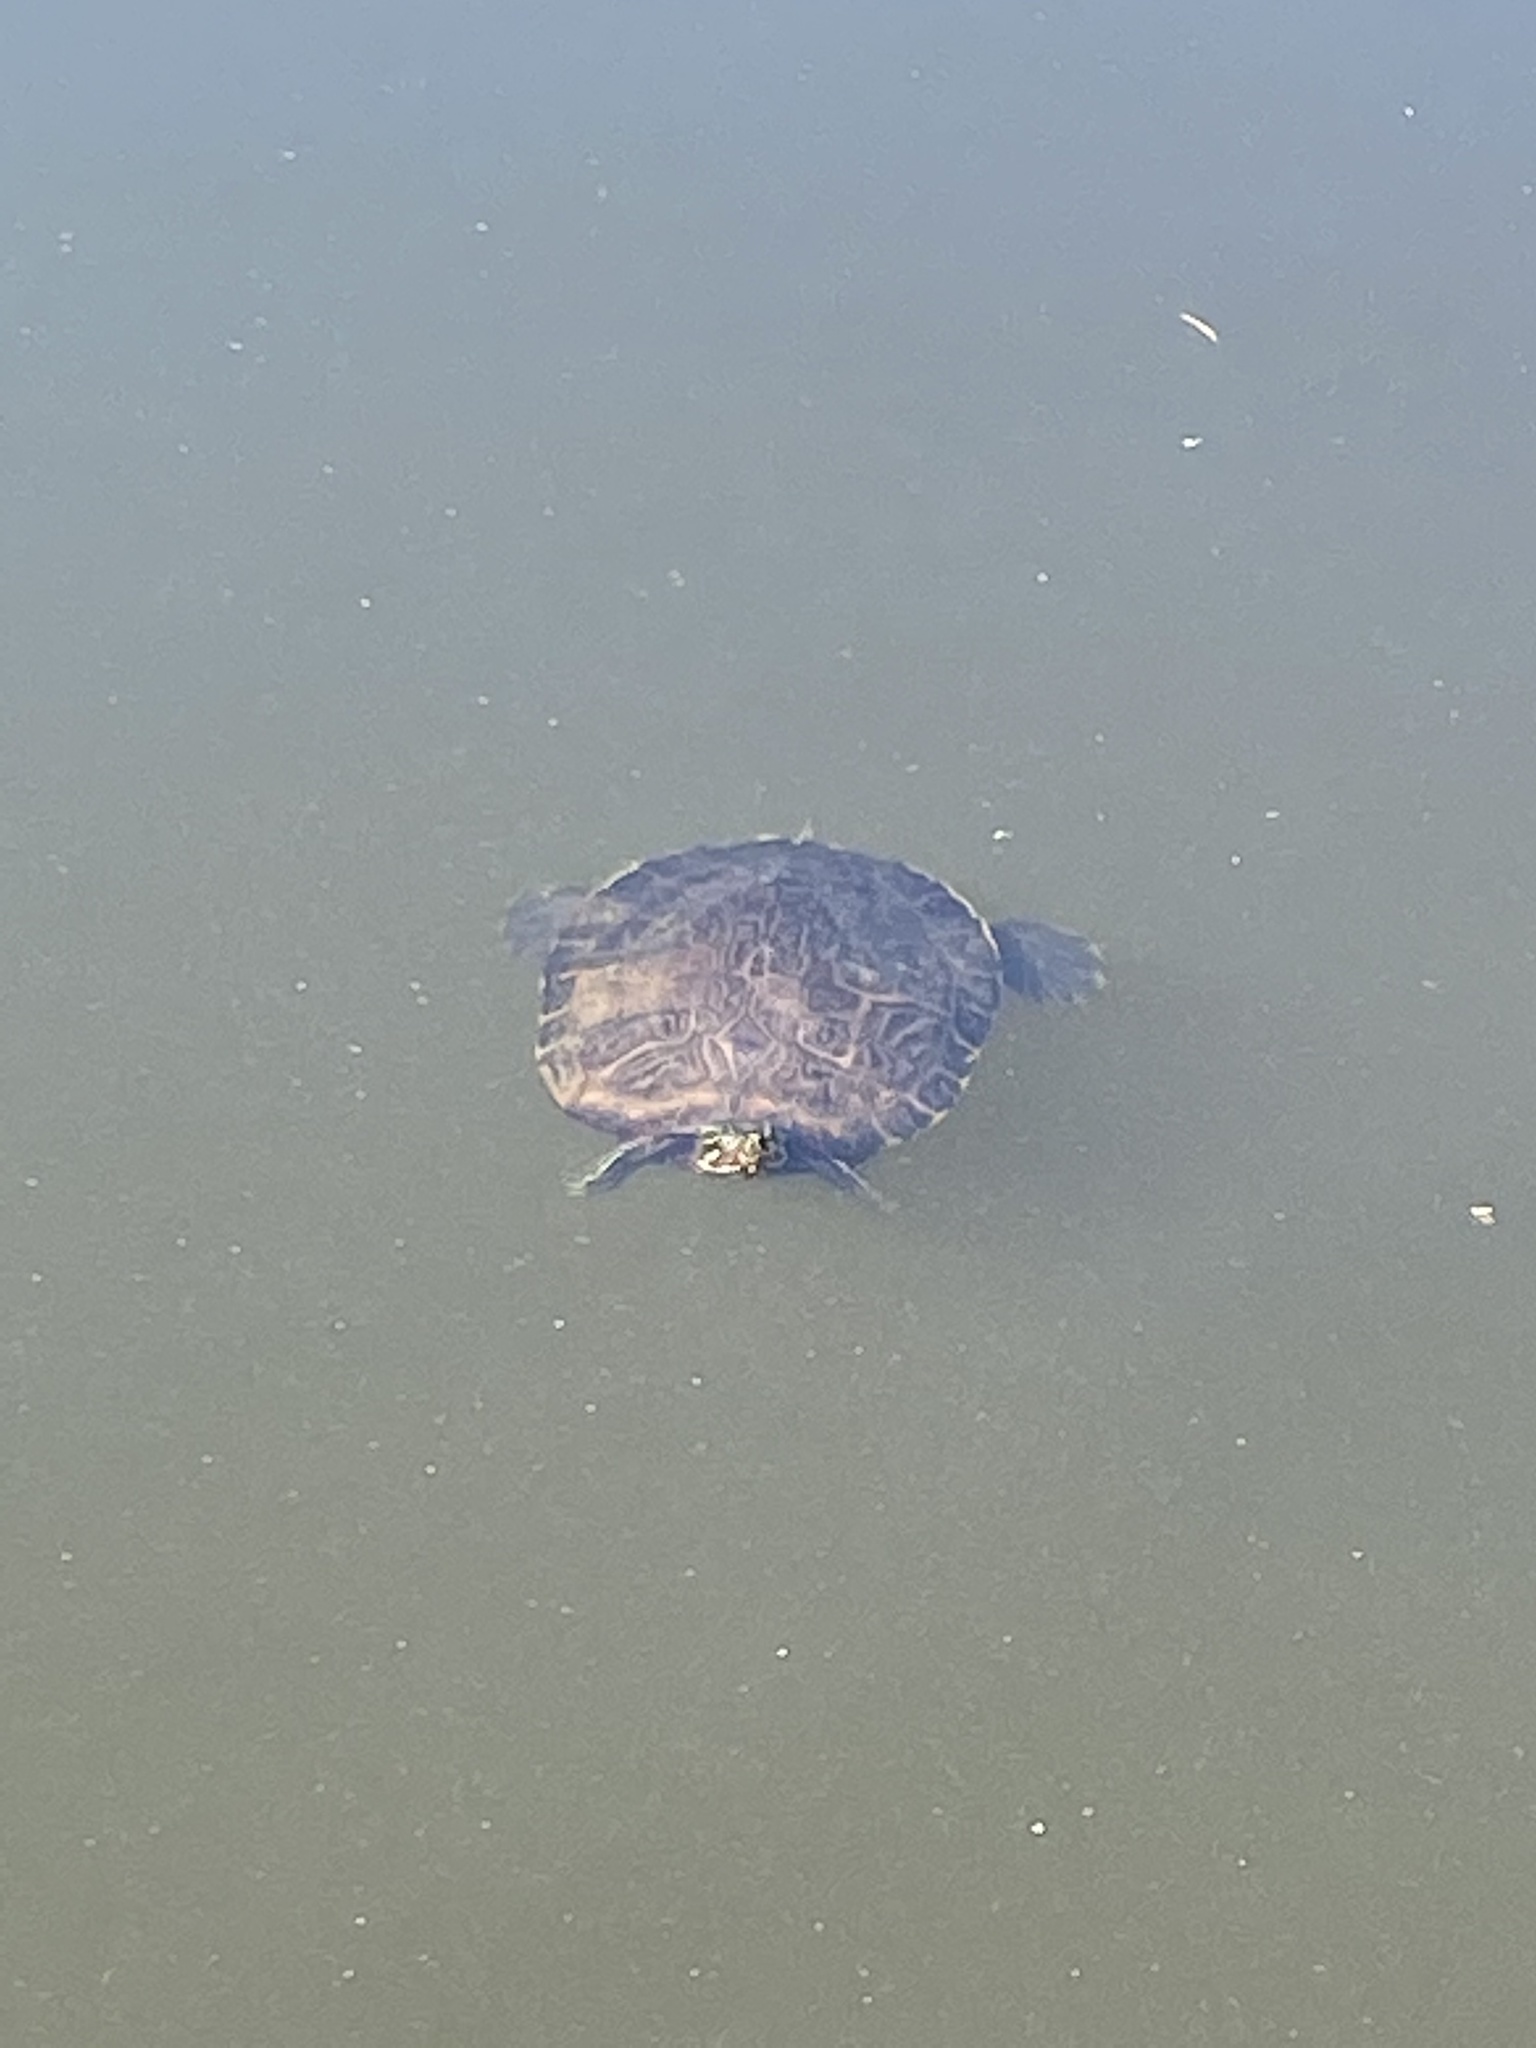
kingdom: Animalia
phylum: Chordata
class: Testudines
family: Emydidae
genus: Trachemys
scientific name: Trachemys scripta
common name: Slider
